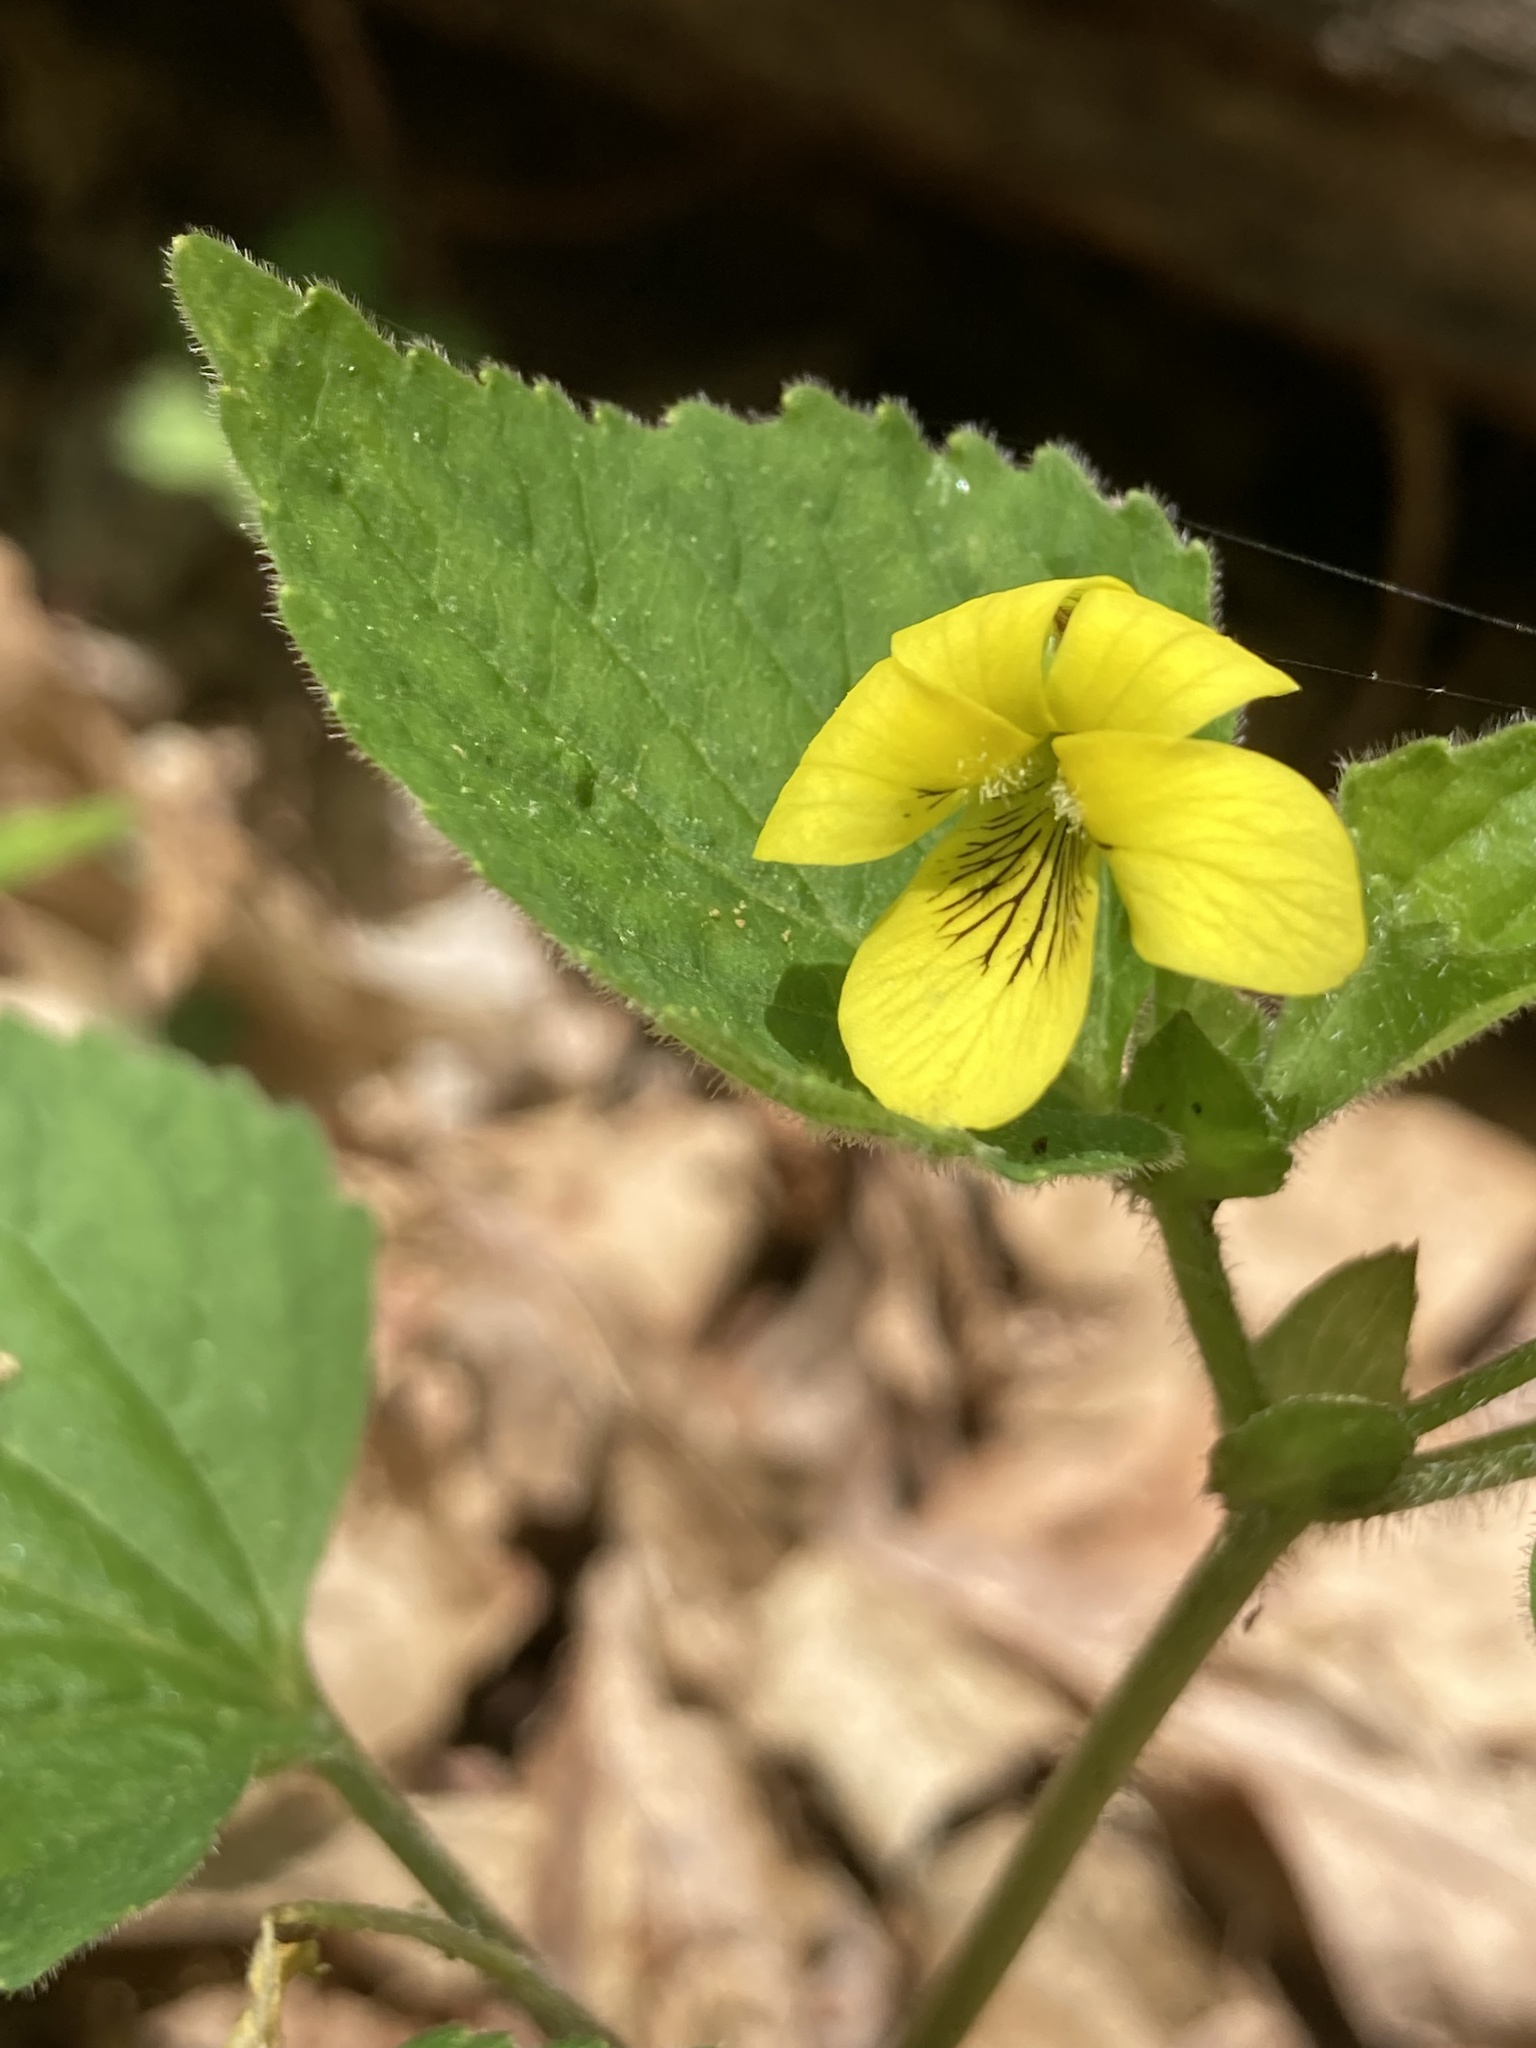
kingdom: Plantae
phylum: Tracheophyta
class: Magnoliopsida
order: Malpighiales
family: Violaceae
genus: Viola
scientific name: Viola eriocarpa
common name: Smooth yellow violet
